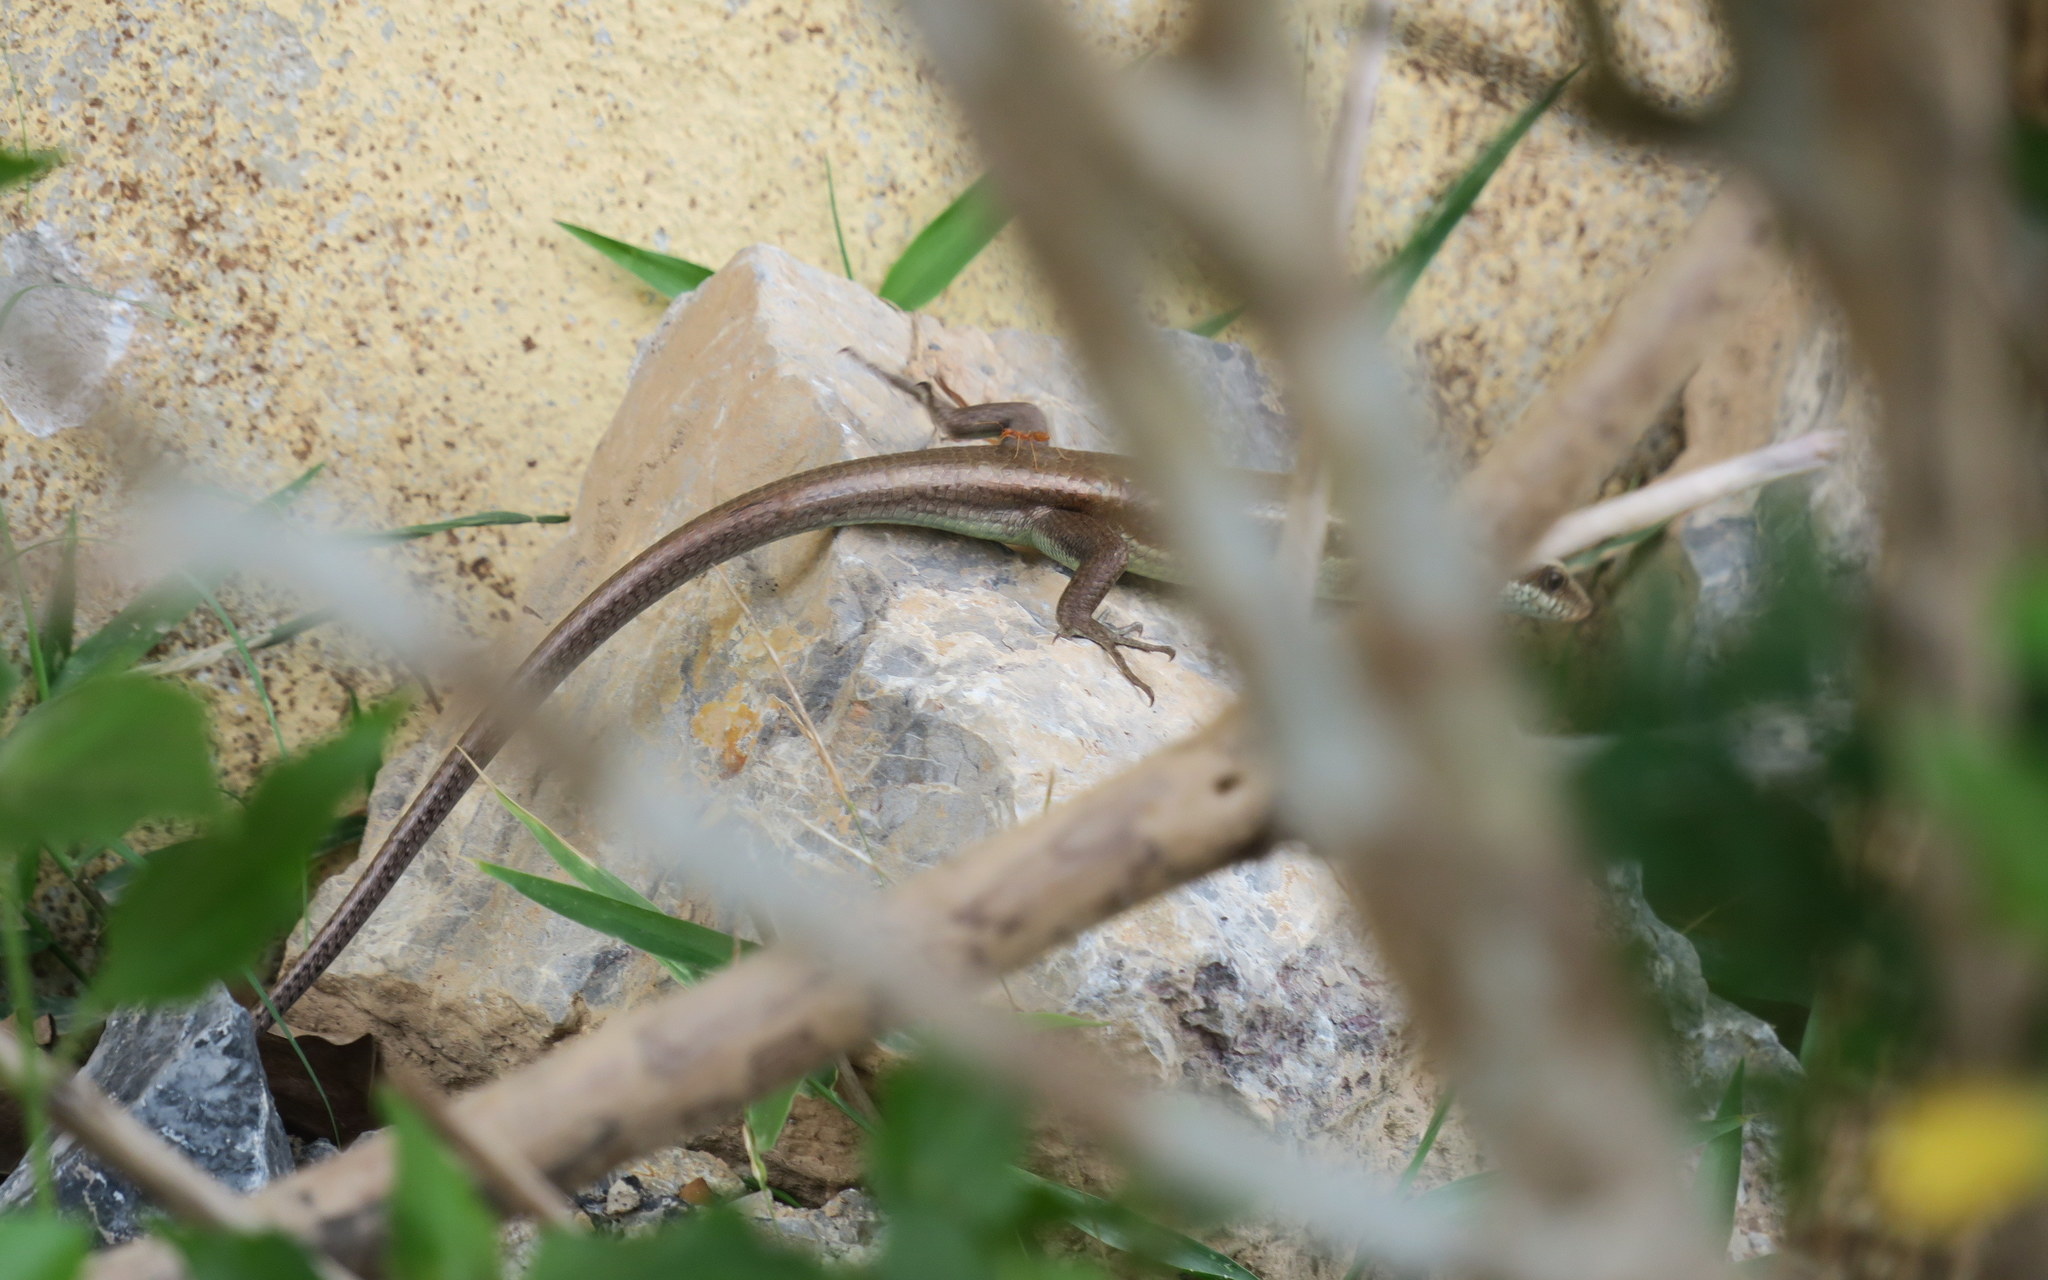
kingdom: Animalia
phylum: Chordata
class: Squamata
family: Scincidae
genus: Eutropis
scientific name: Eutropis longicaudata
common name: Long-tailed sun skink
